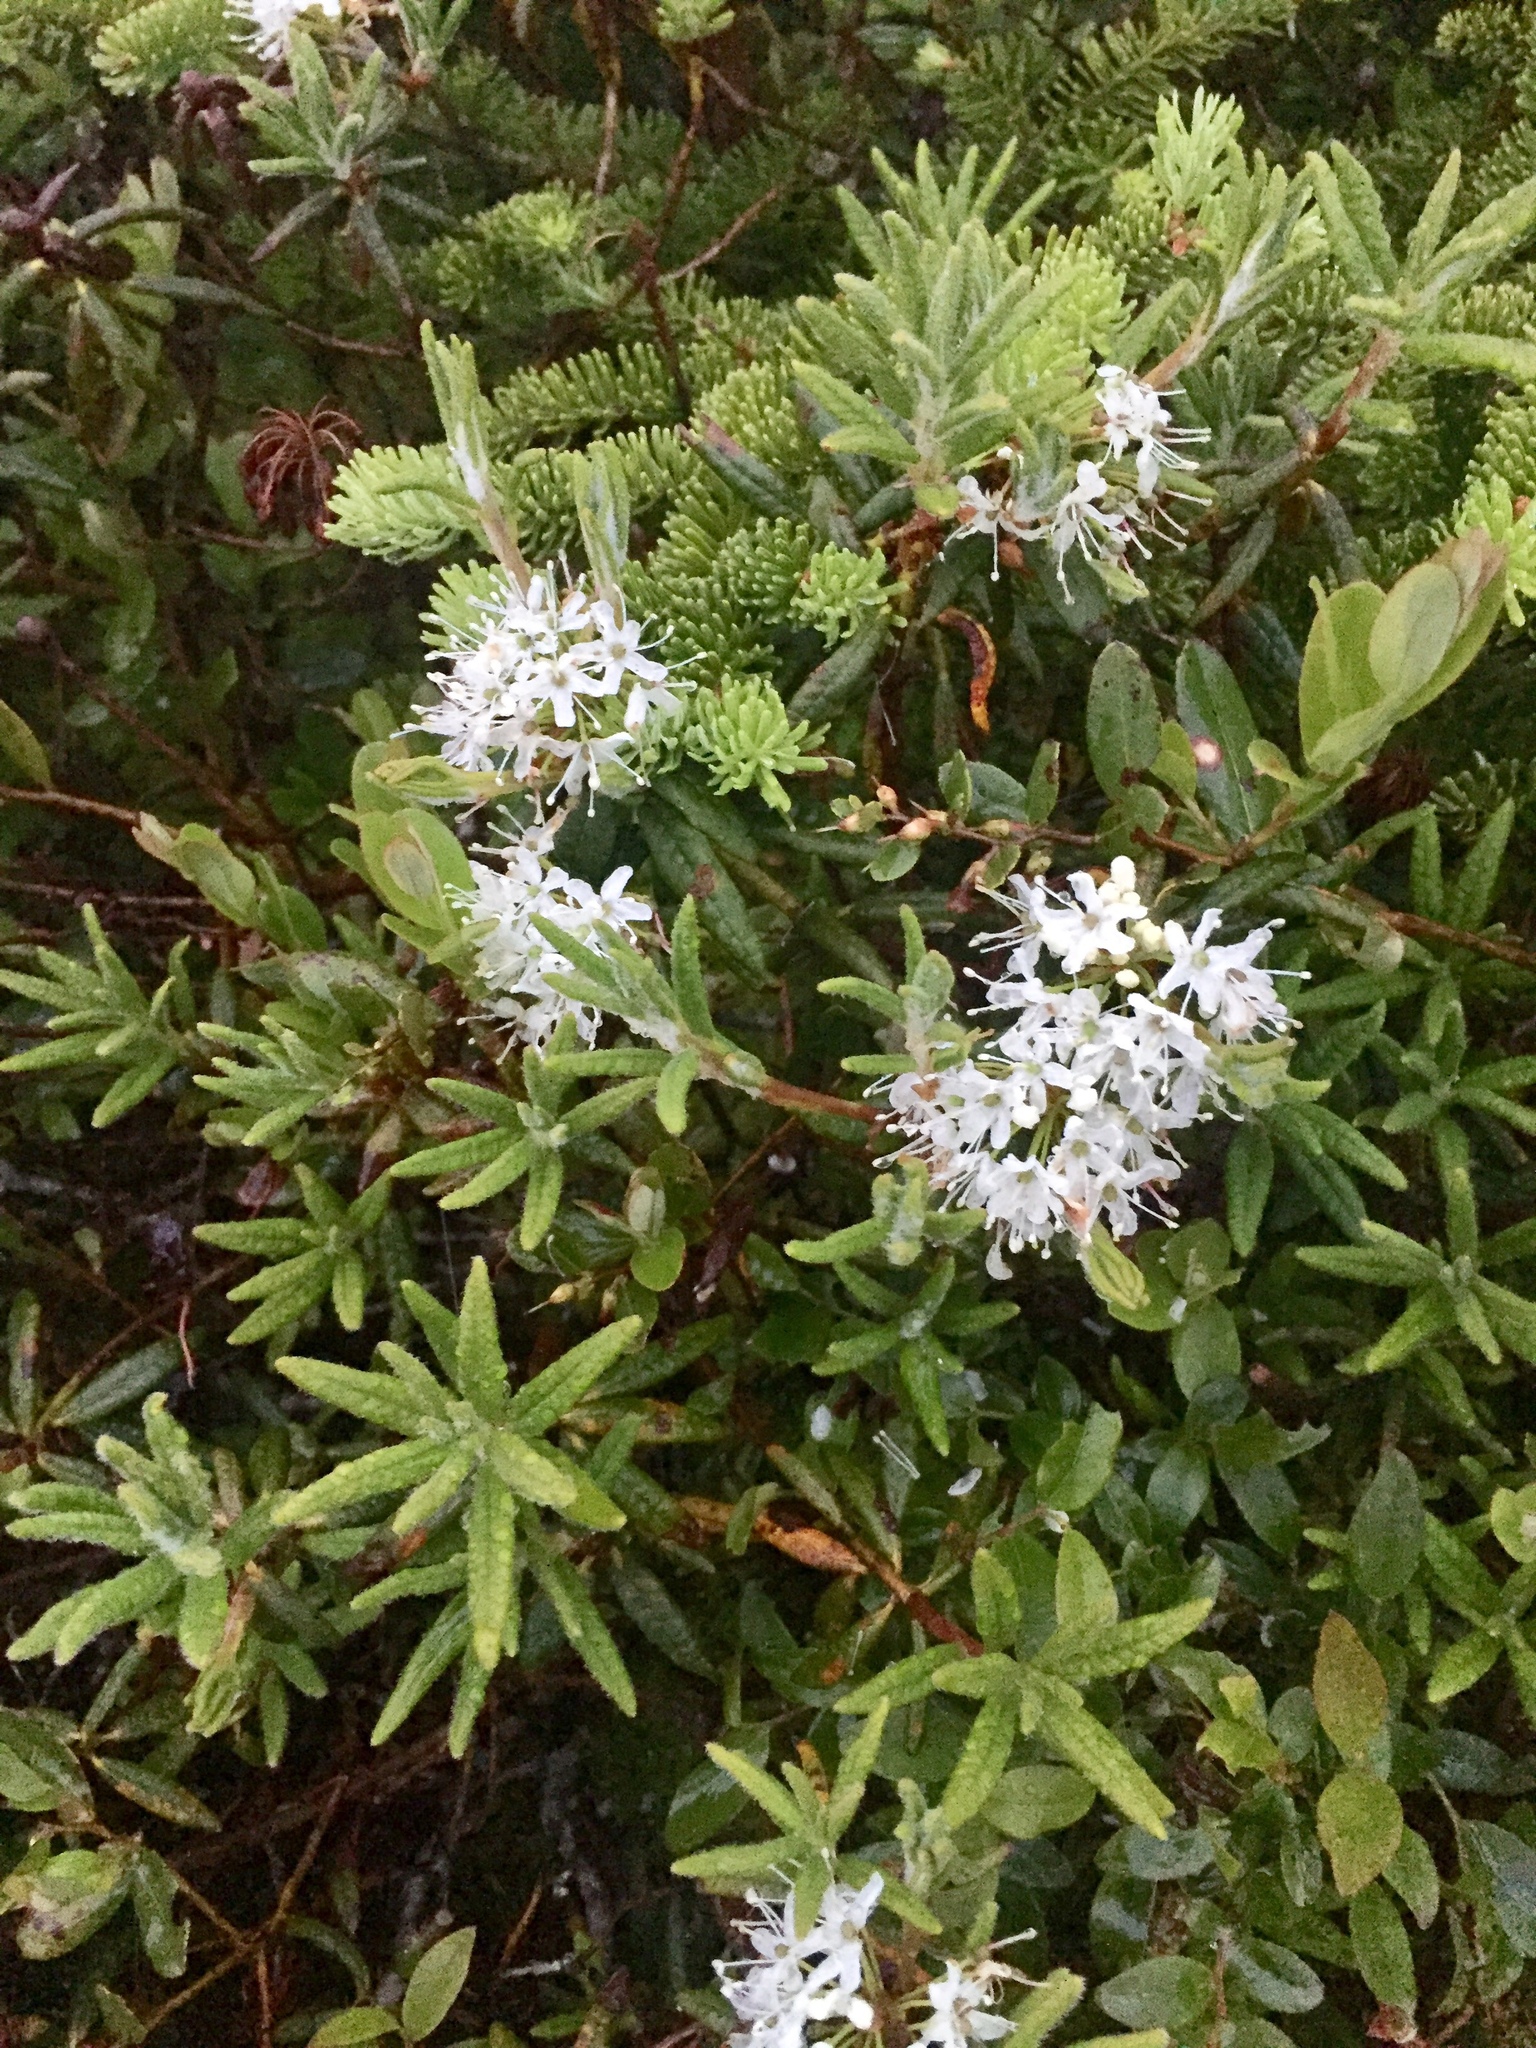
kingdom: Plantae
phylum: Tracheophyta
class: Magnoliopsida
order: Ericales
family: Ericaceae
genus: Rhododendron
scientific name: Rhododendron groenlandicum
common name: Bog labrador tea
